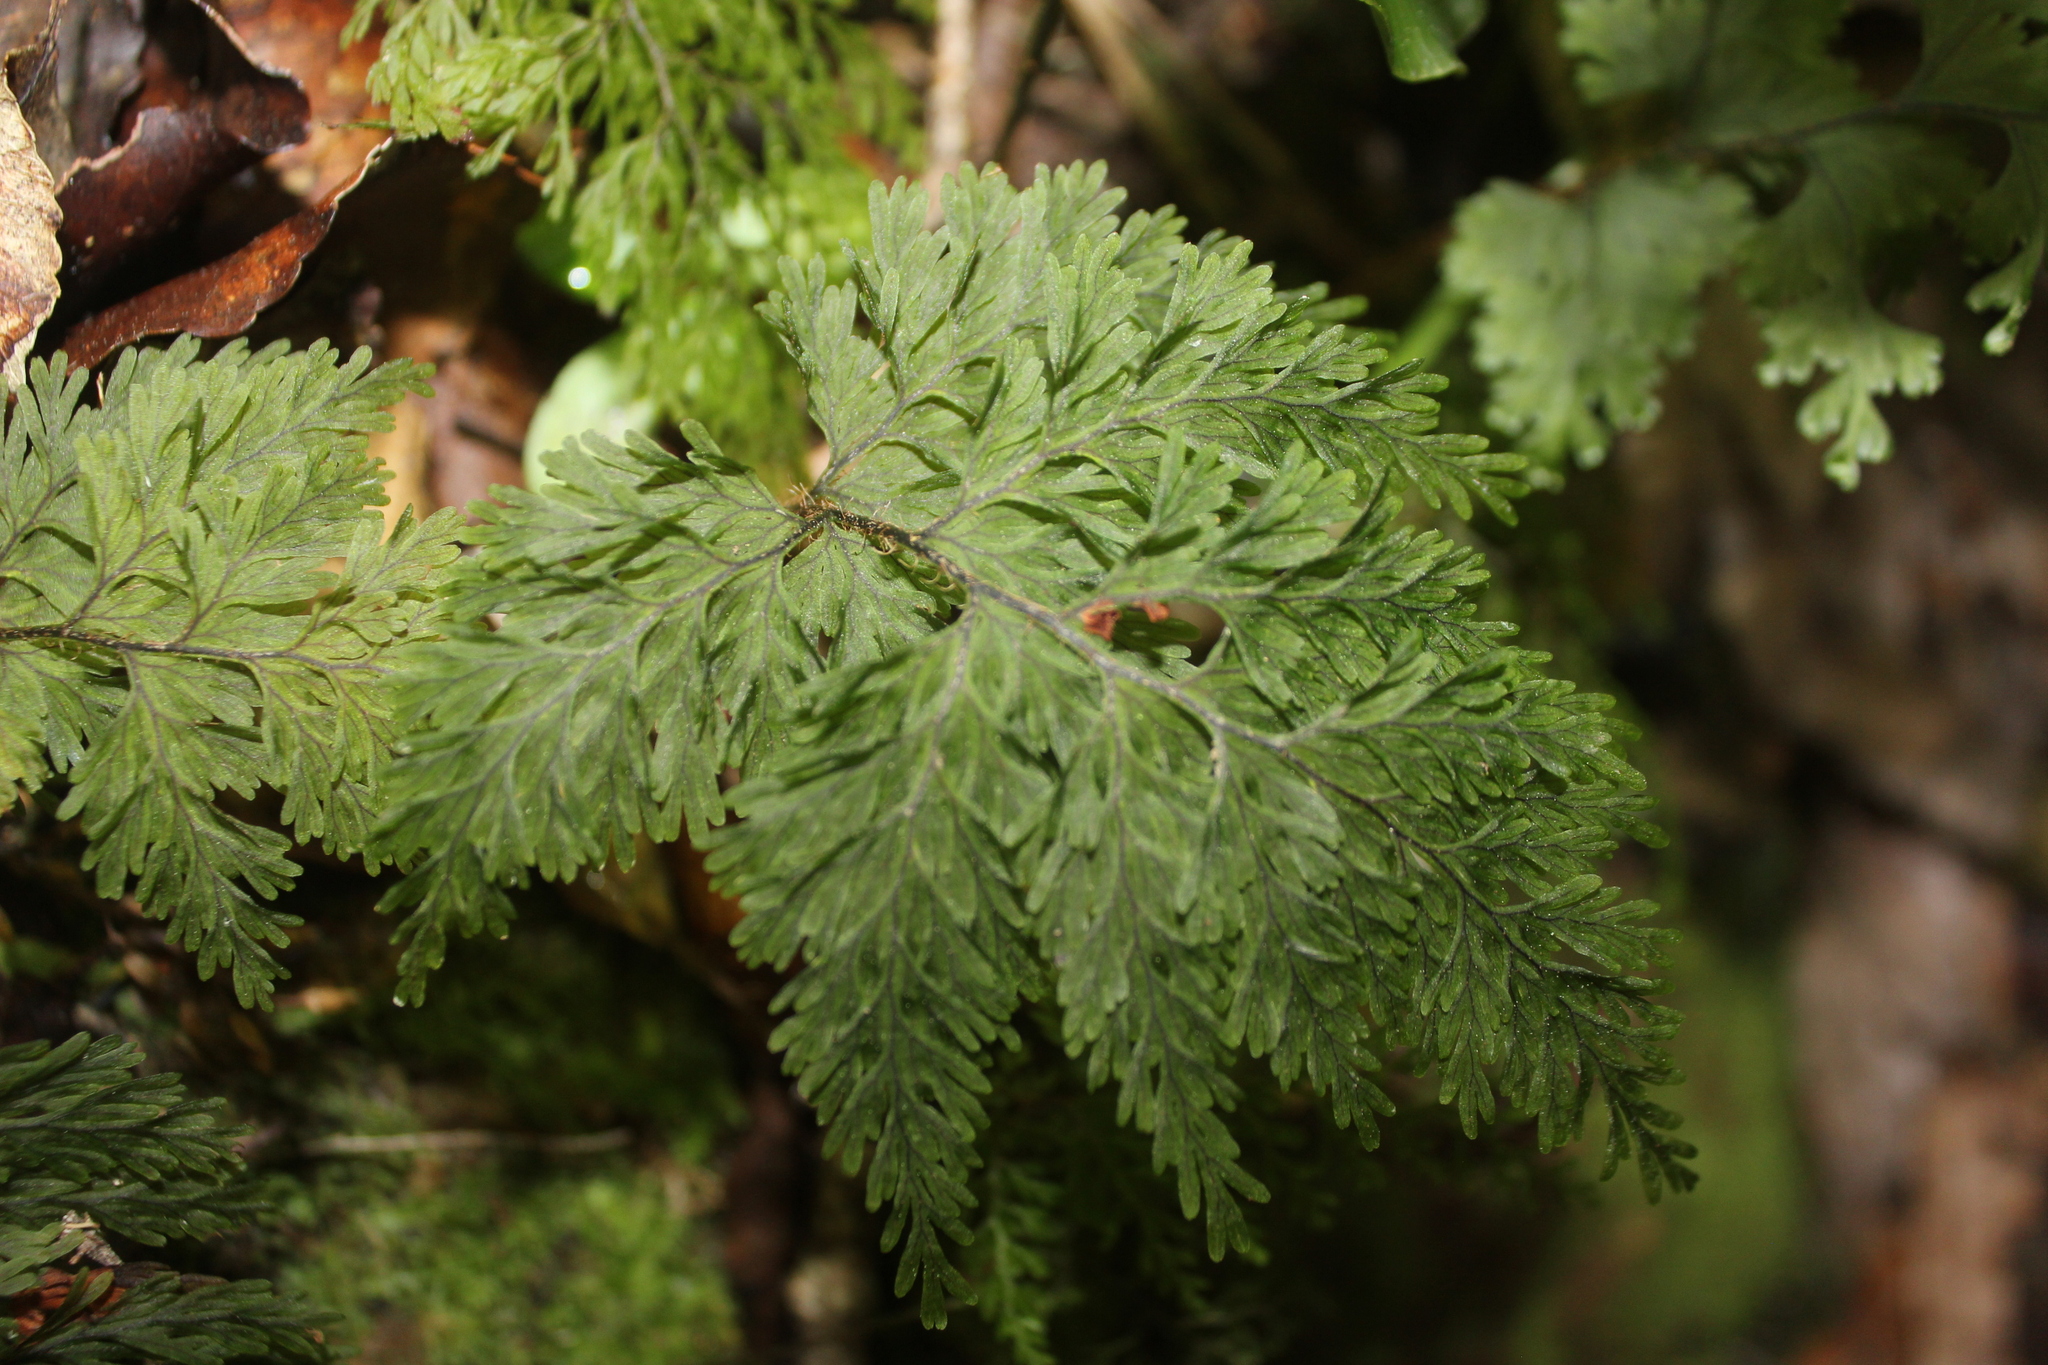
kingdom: Plantae
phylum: Tracheophyta
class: Polypodiopsida
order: Hymenophyllales
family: Hymenophyllaceae
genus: Hymenophyllum
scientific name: Hymenophyllum scabrum
